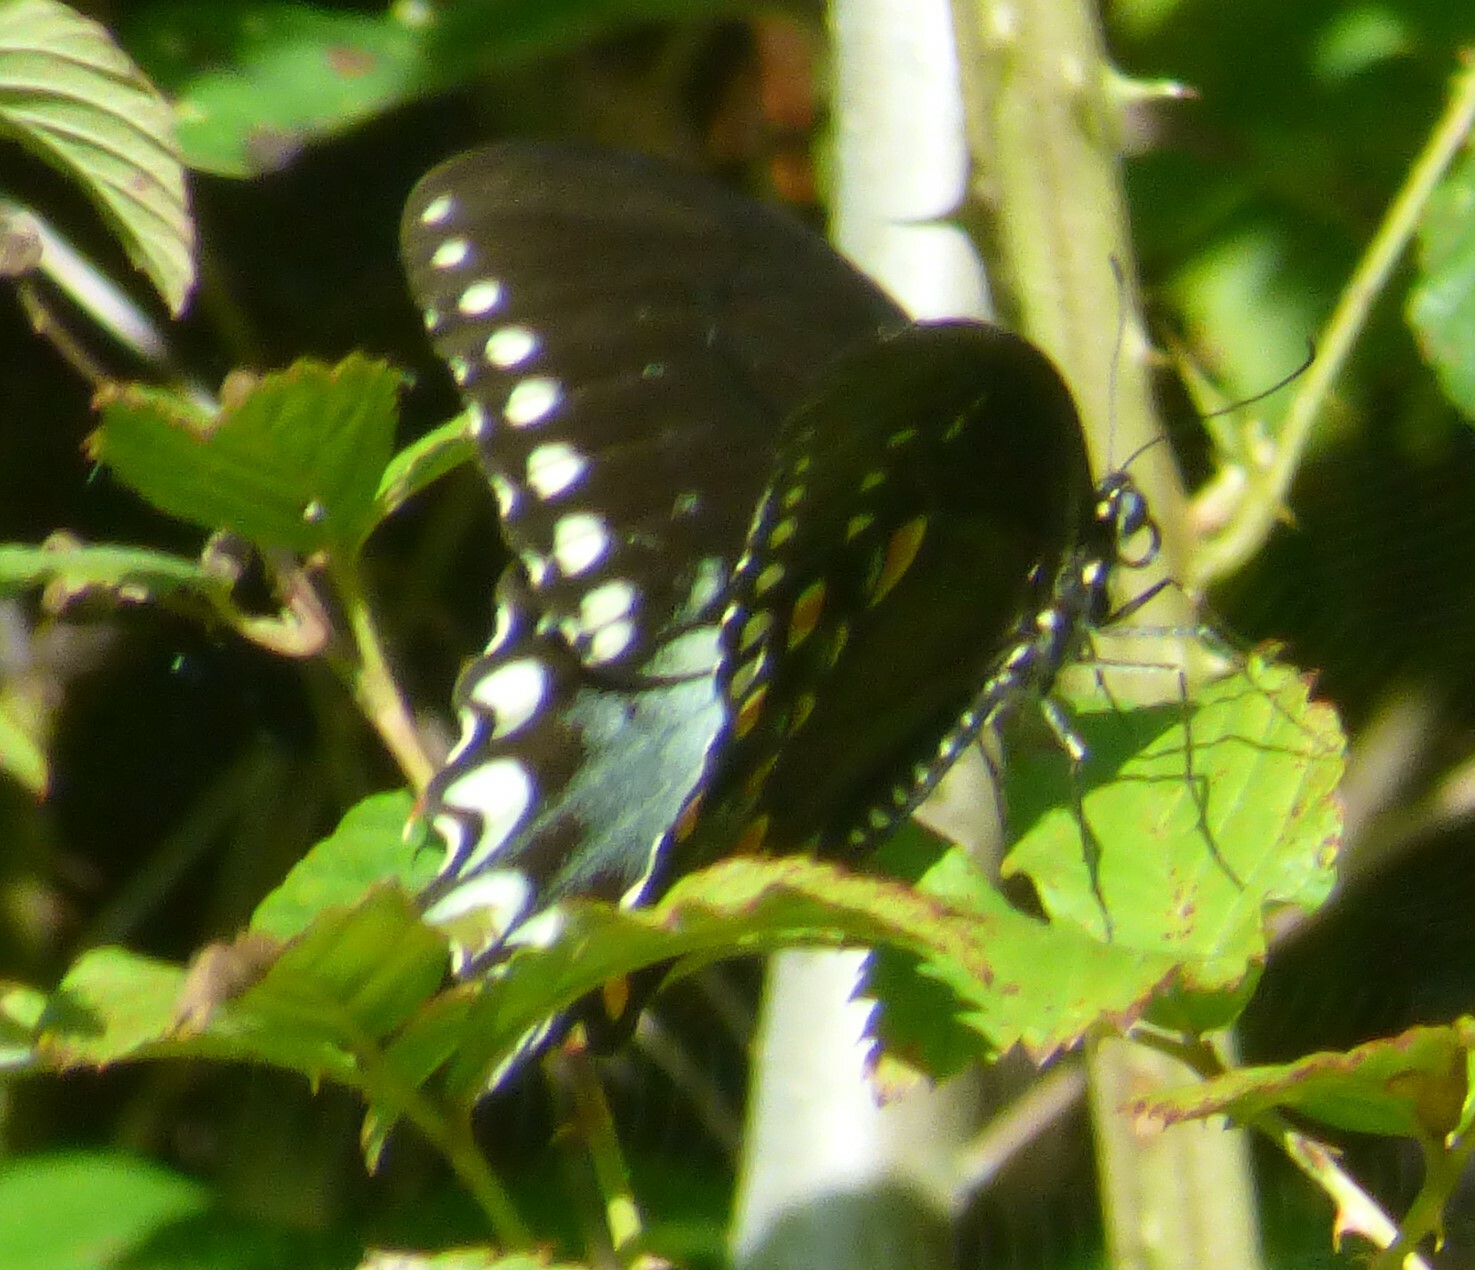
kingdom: Animalia
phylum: Arthropoda
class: Insecta
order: Lepidoptera
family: Papilionidae
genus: Papilio
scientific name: Papilio troilus
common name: Spicebush swallowtail
